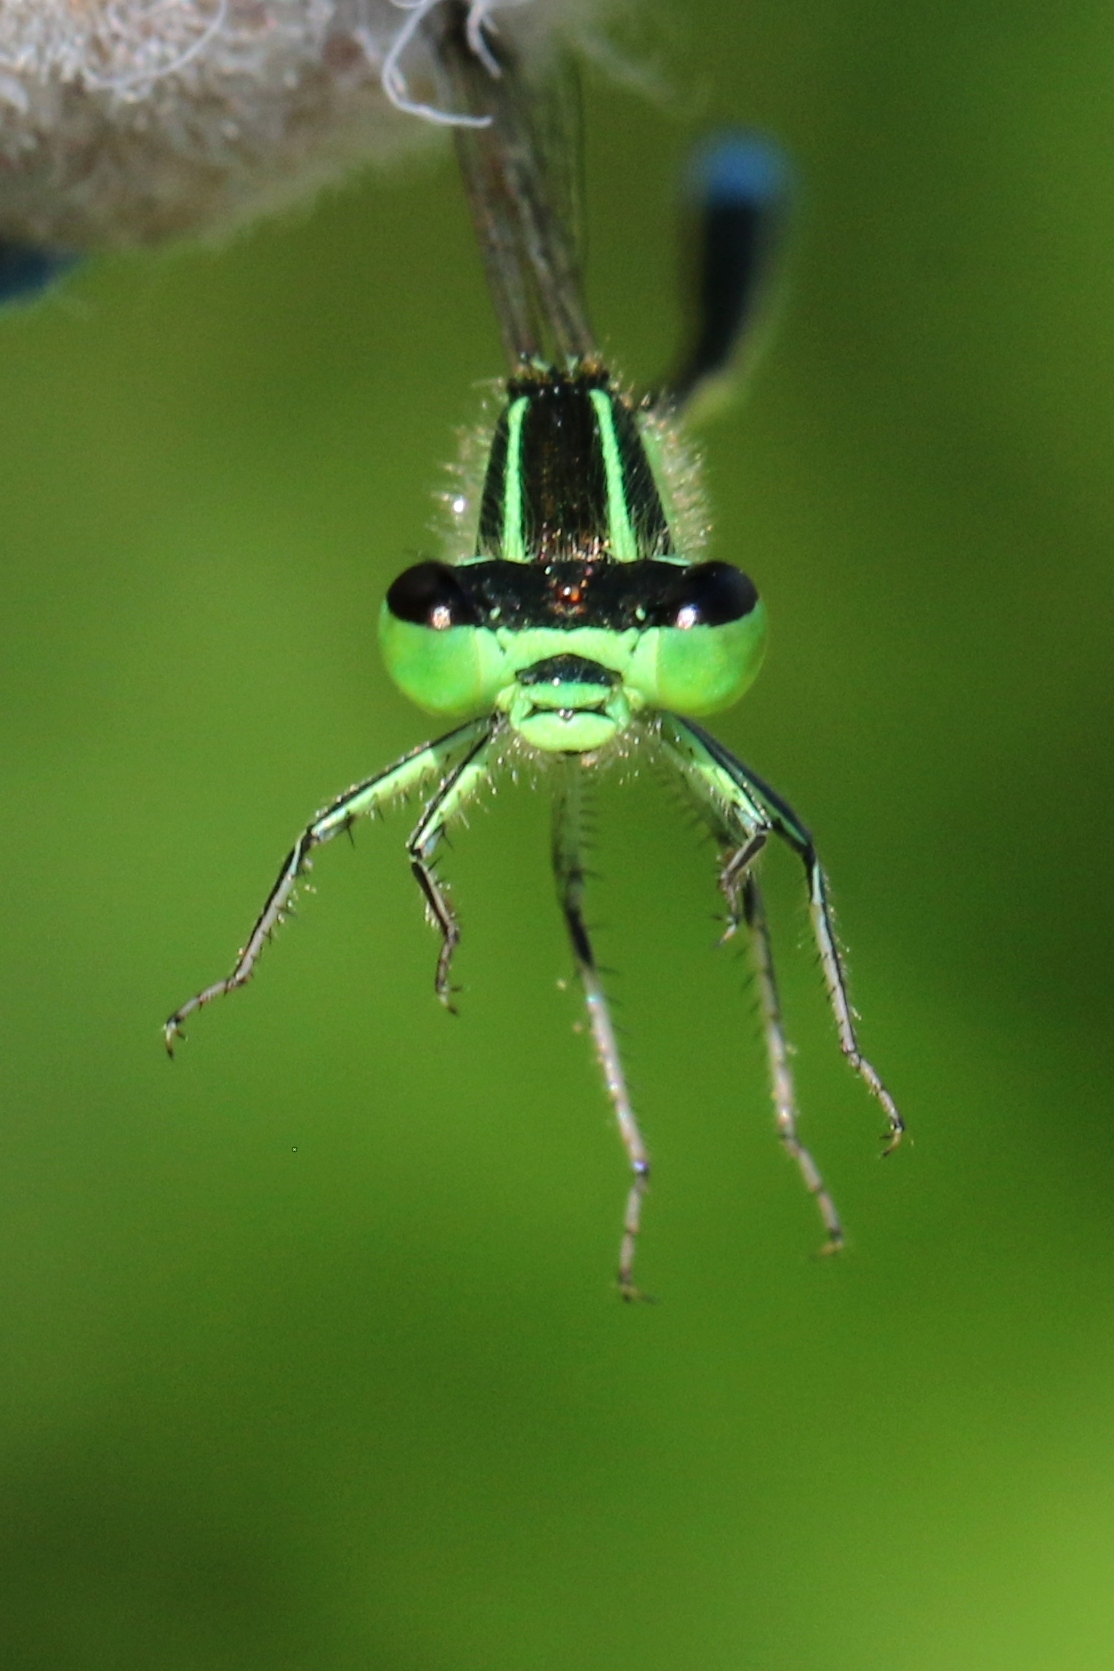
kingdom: Animalia
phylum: Arthropoda
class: Insecta
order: Odonata
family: Coenagrionidae
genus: Ischnura
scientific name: Ischnura verticalis
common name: Eastern forktail
